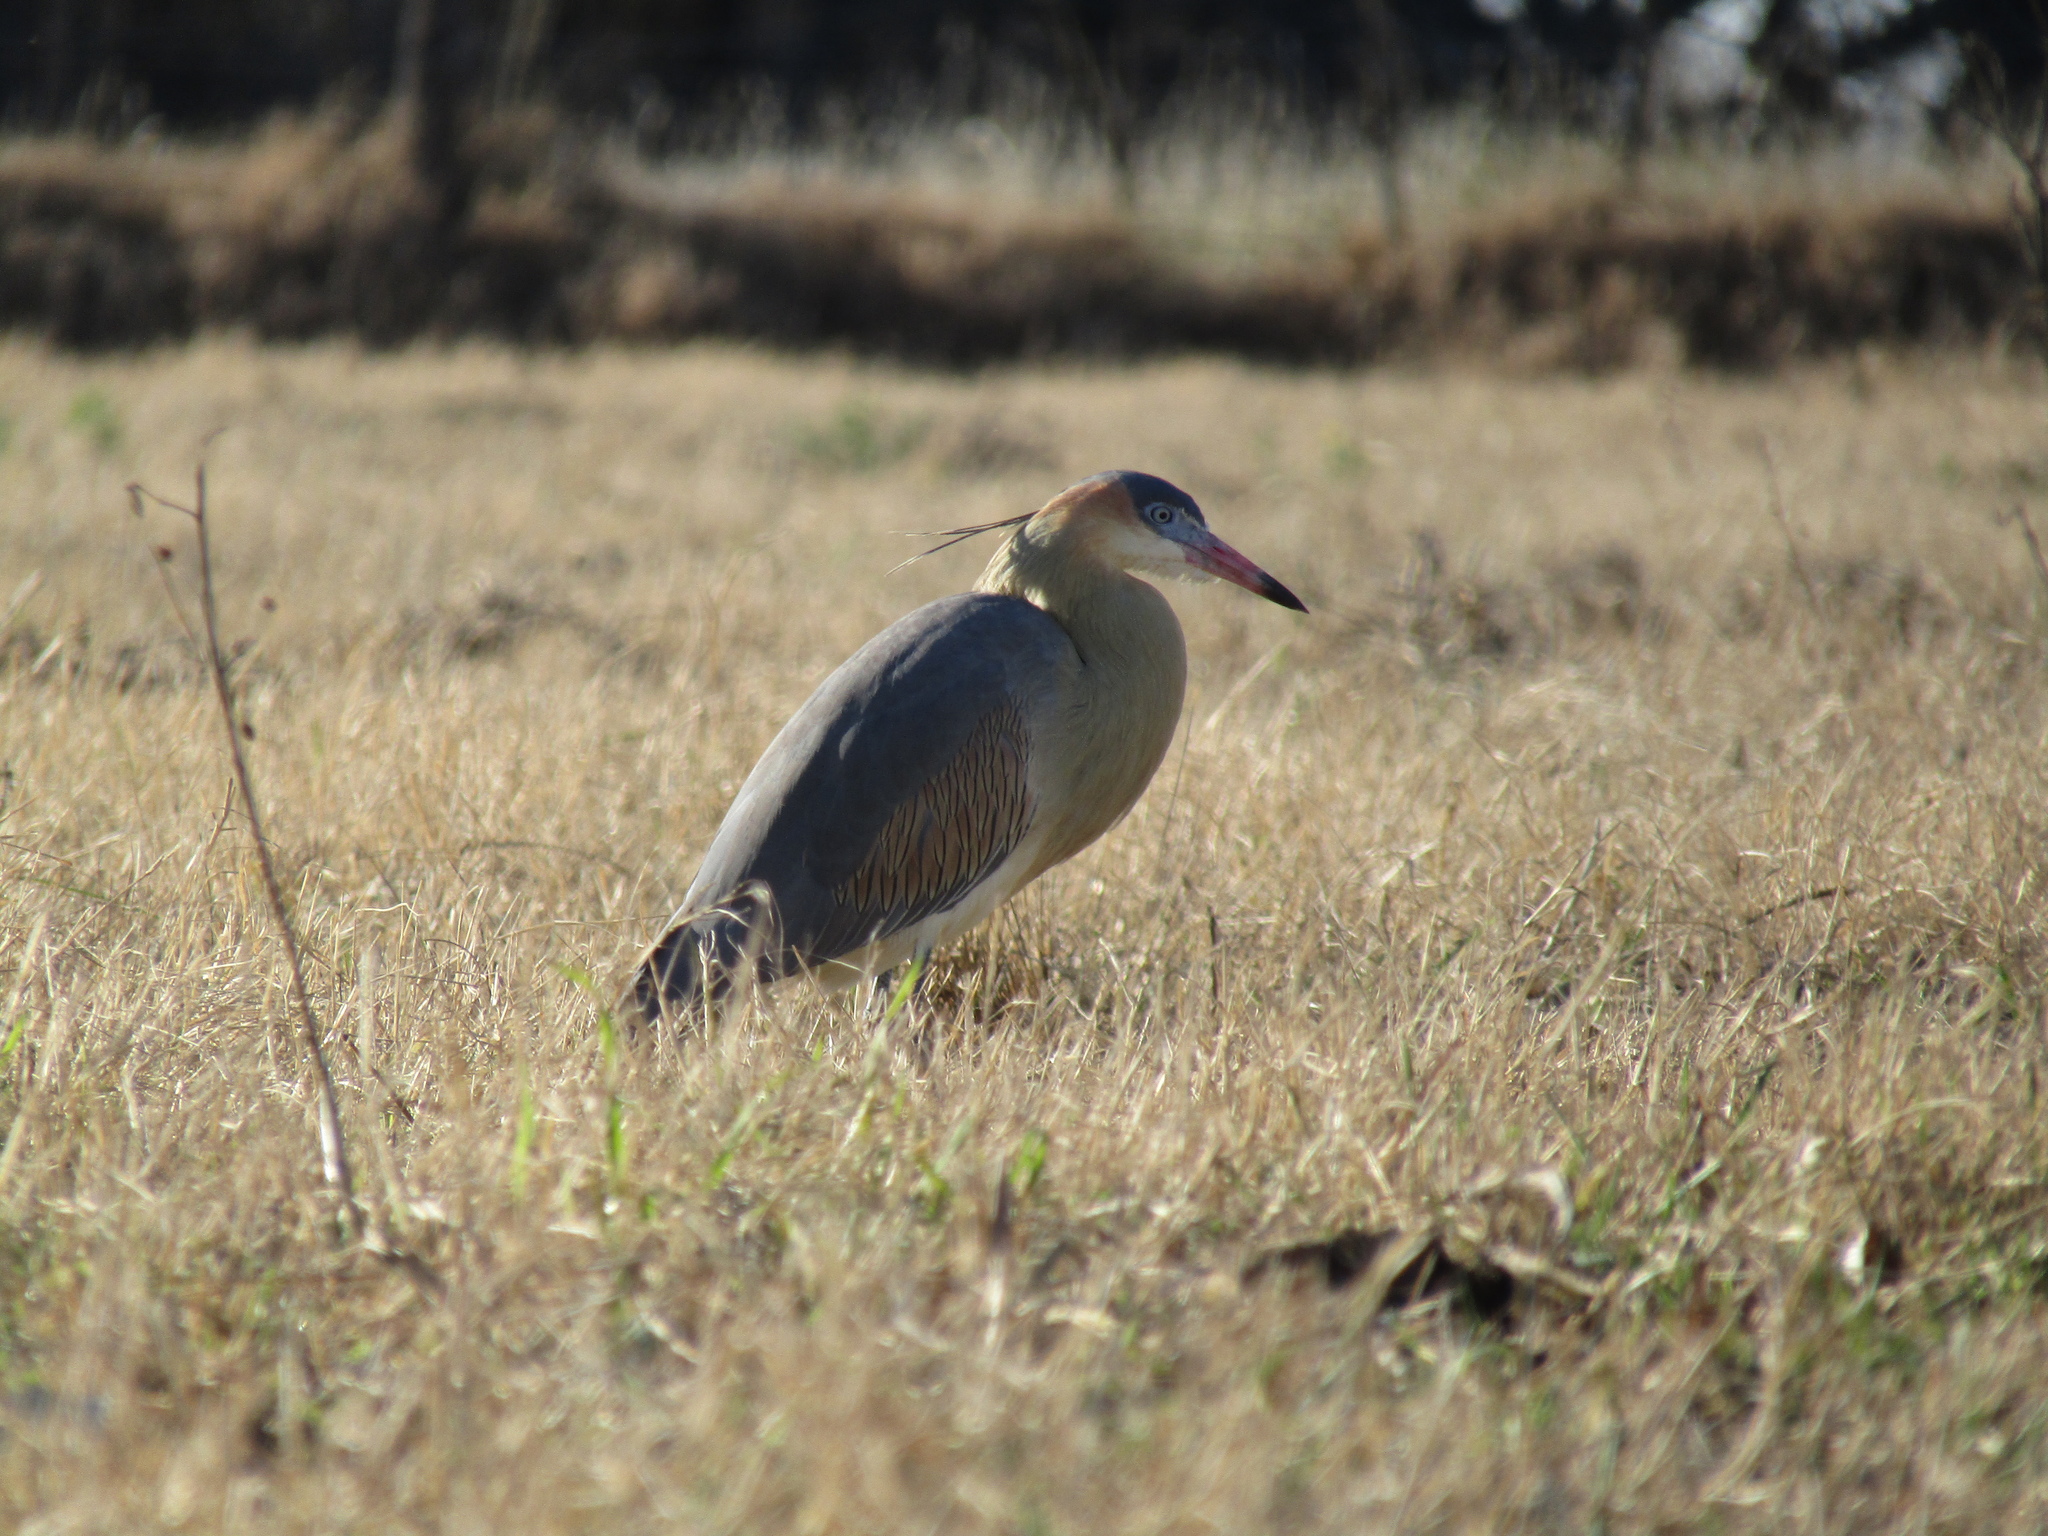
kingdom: Animalia
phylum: Chordata
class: Aves
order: Pelecaniformes
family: Ardeidae
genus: Syrigma
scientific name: Syrigma sibilatrix
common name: Whistling heron
